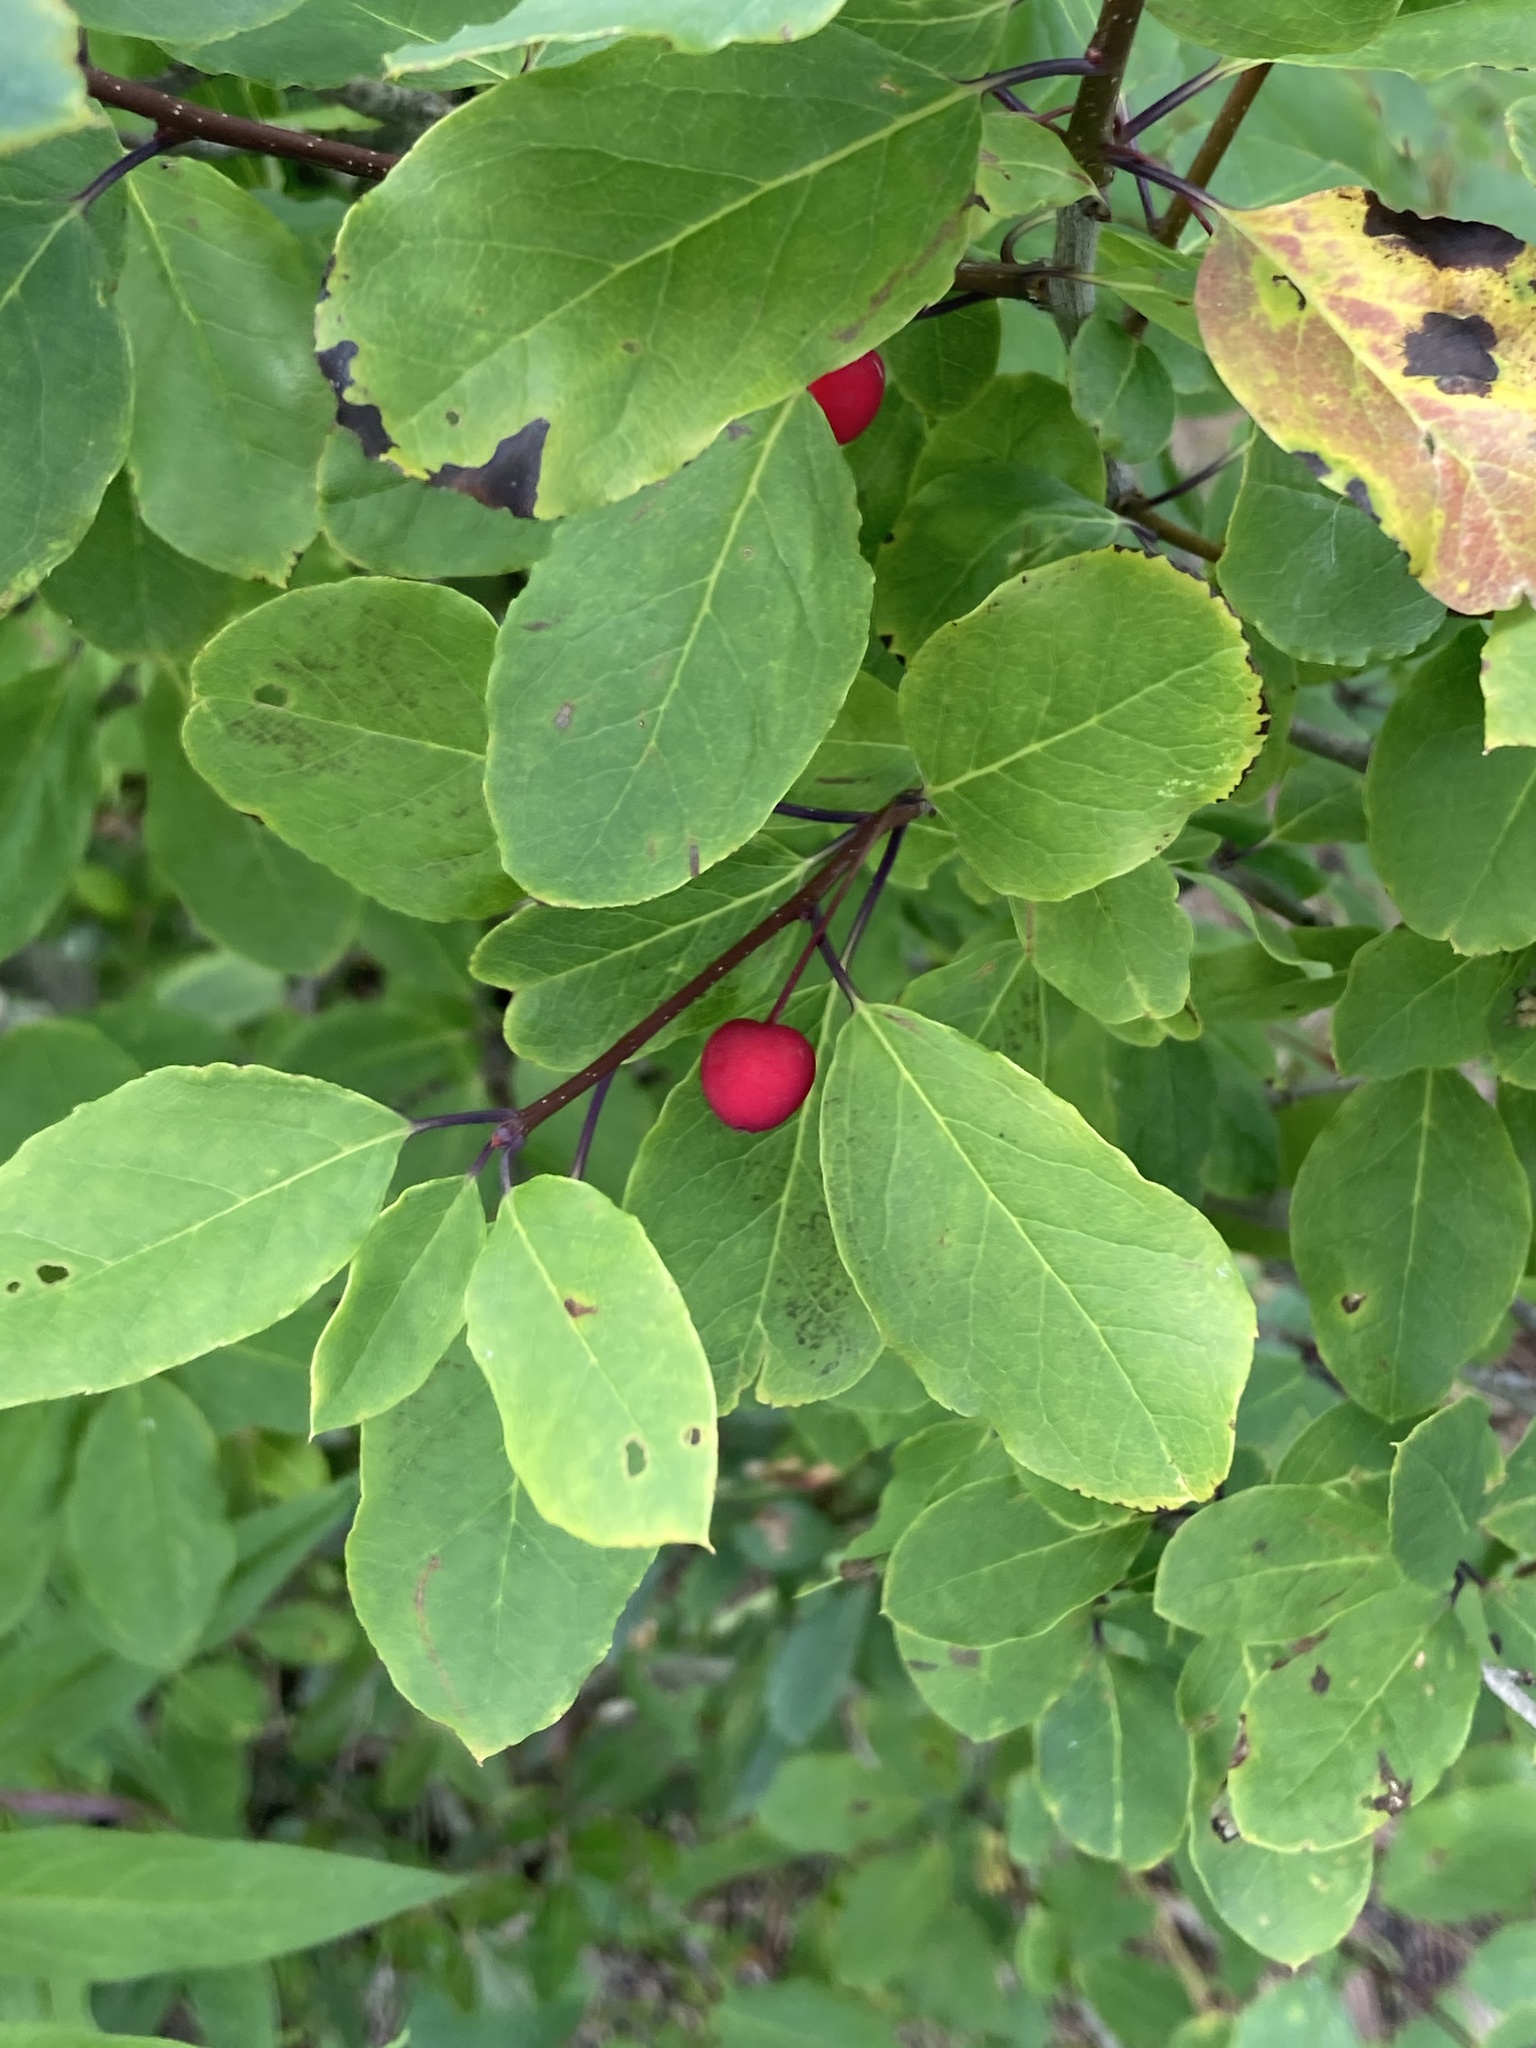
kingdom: Plantae
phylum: Tracheophyta
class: Magnoliopsida
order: Aquifoliales
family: Aquifoliaceae
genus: Ilex
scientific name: Ilex mucronata
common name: Catberry
